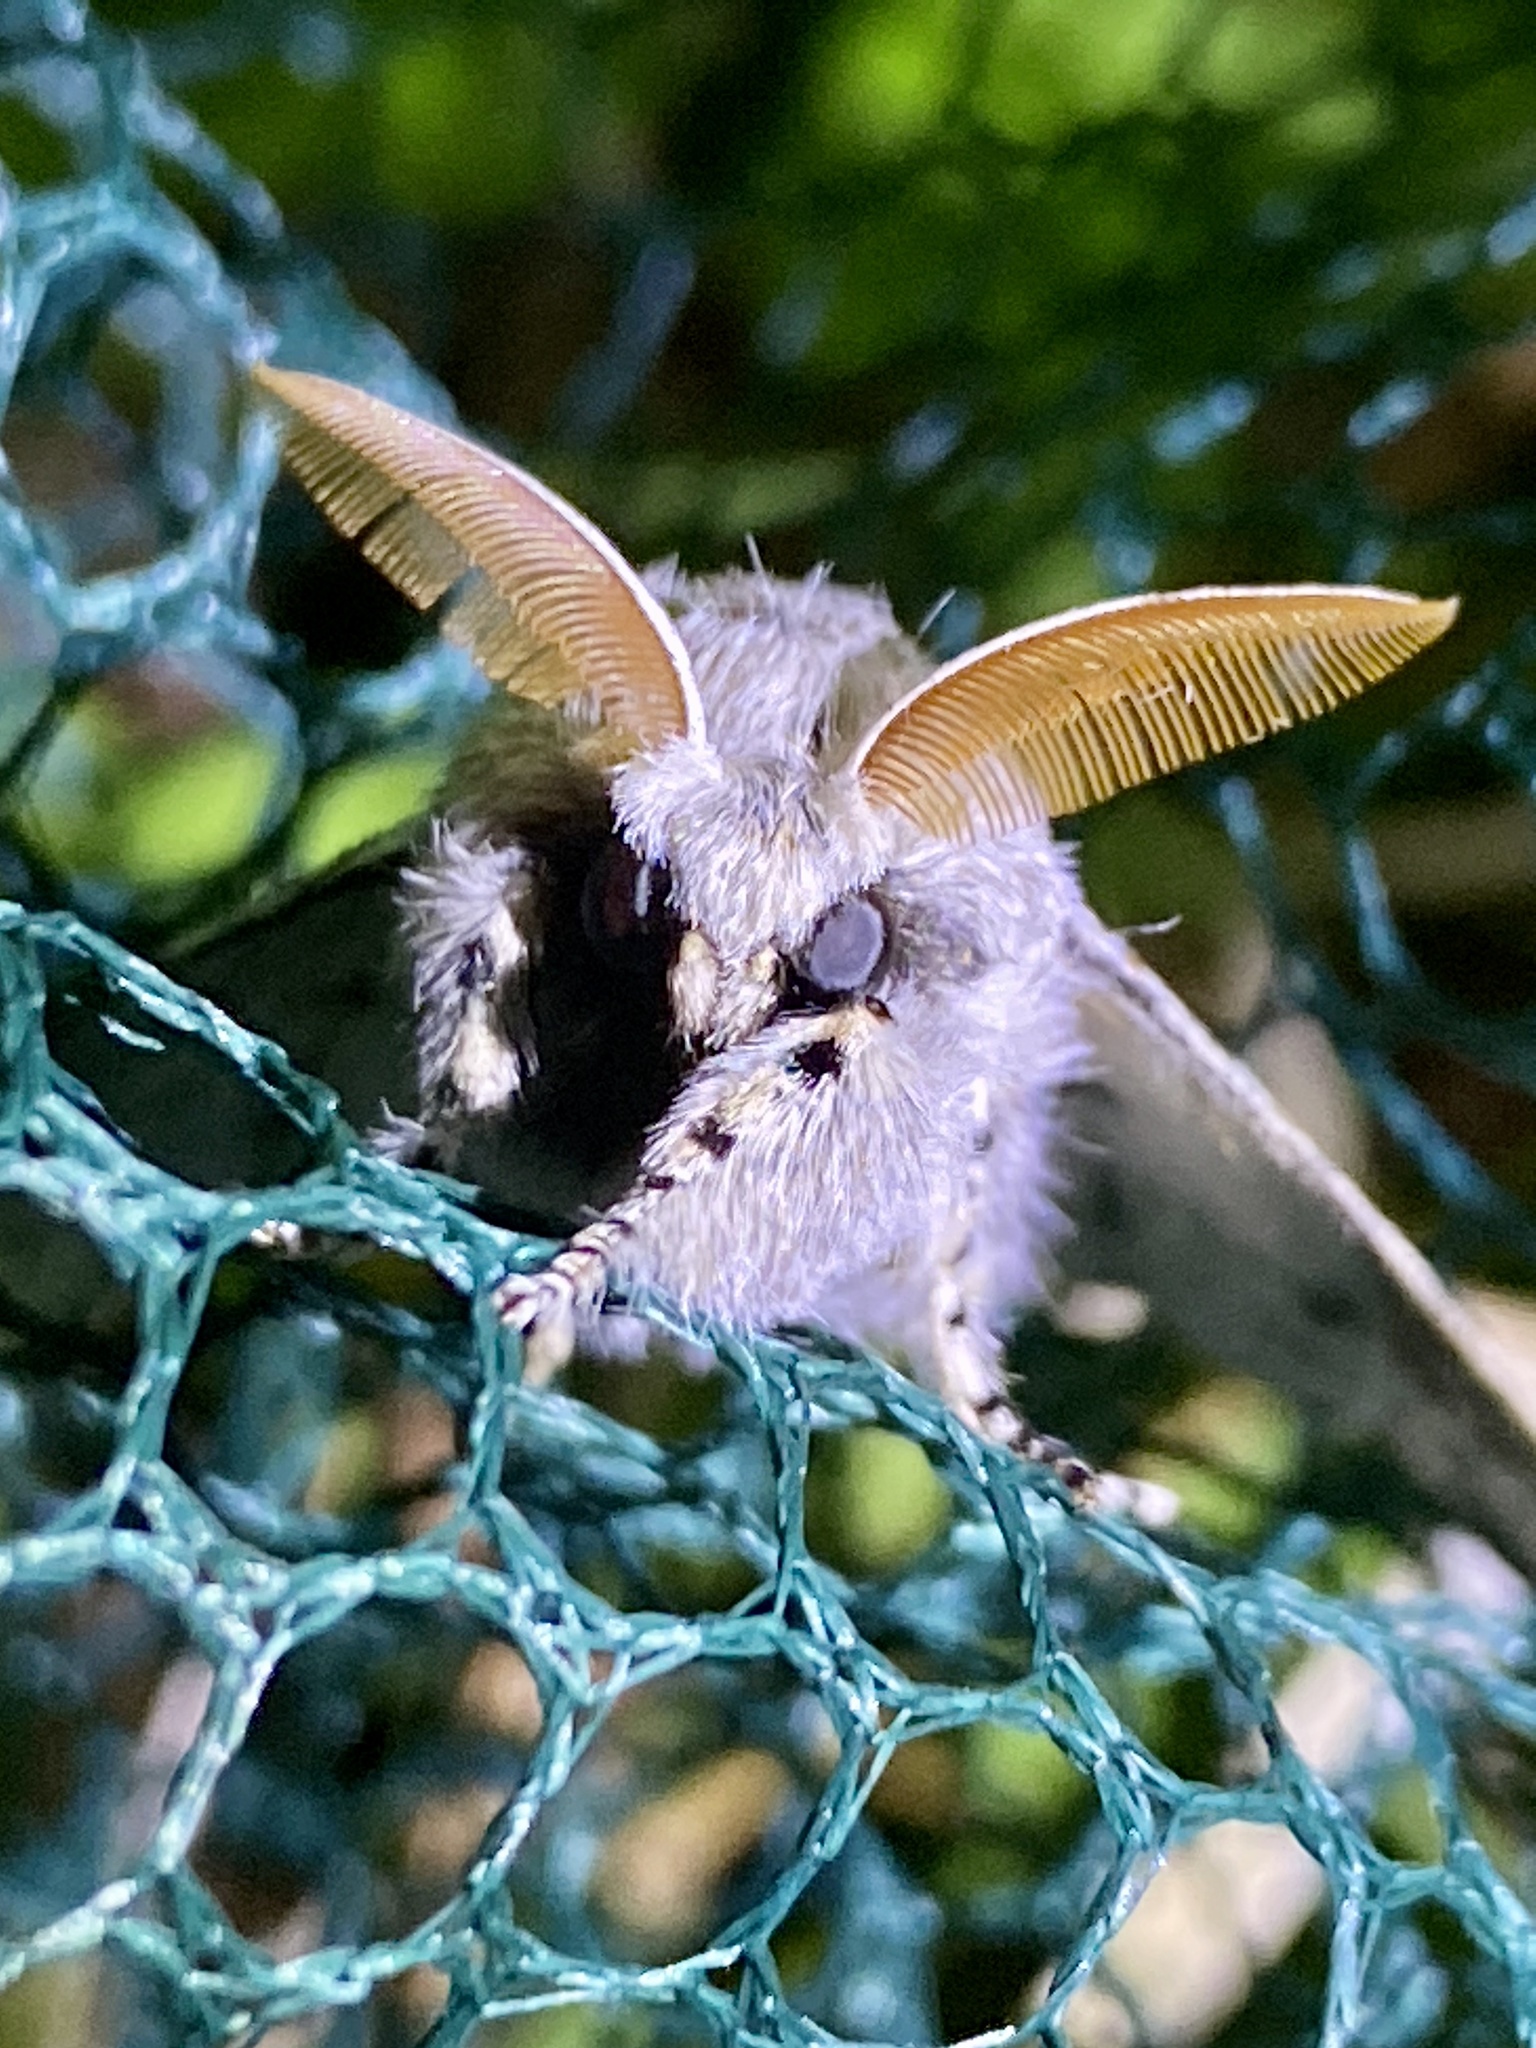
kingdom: Animalia
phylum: Arthropoda
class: Insecta
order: Lepidoptera
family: Erebidae
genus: Calliteara
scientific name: Calliteara
